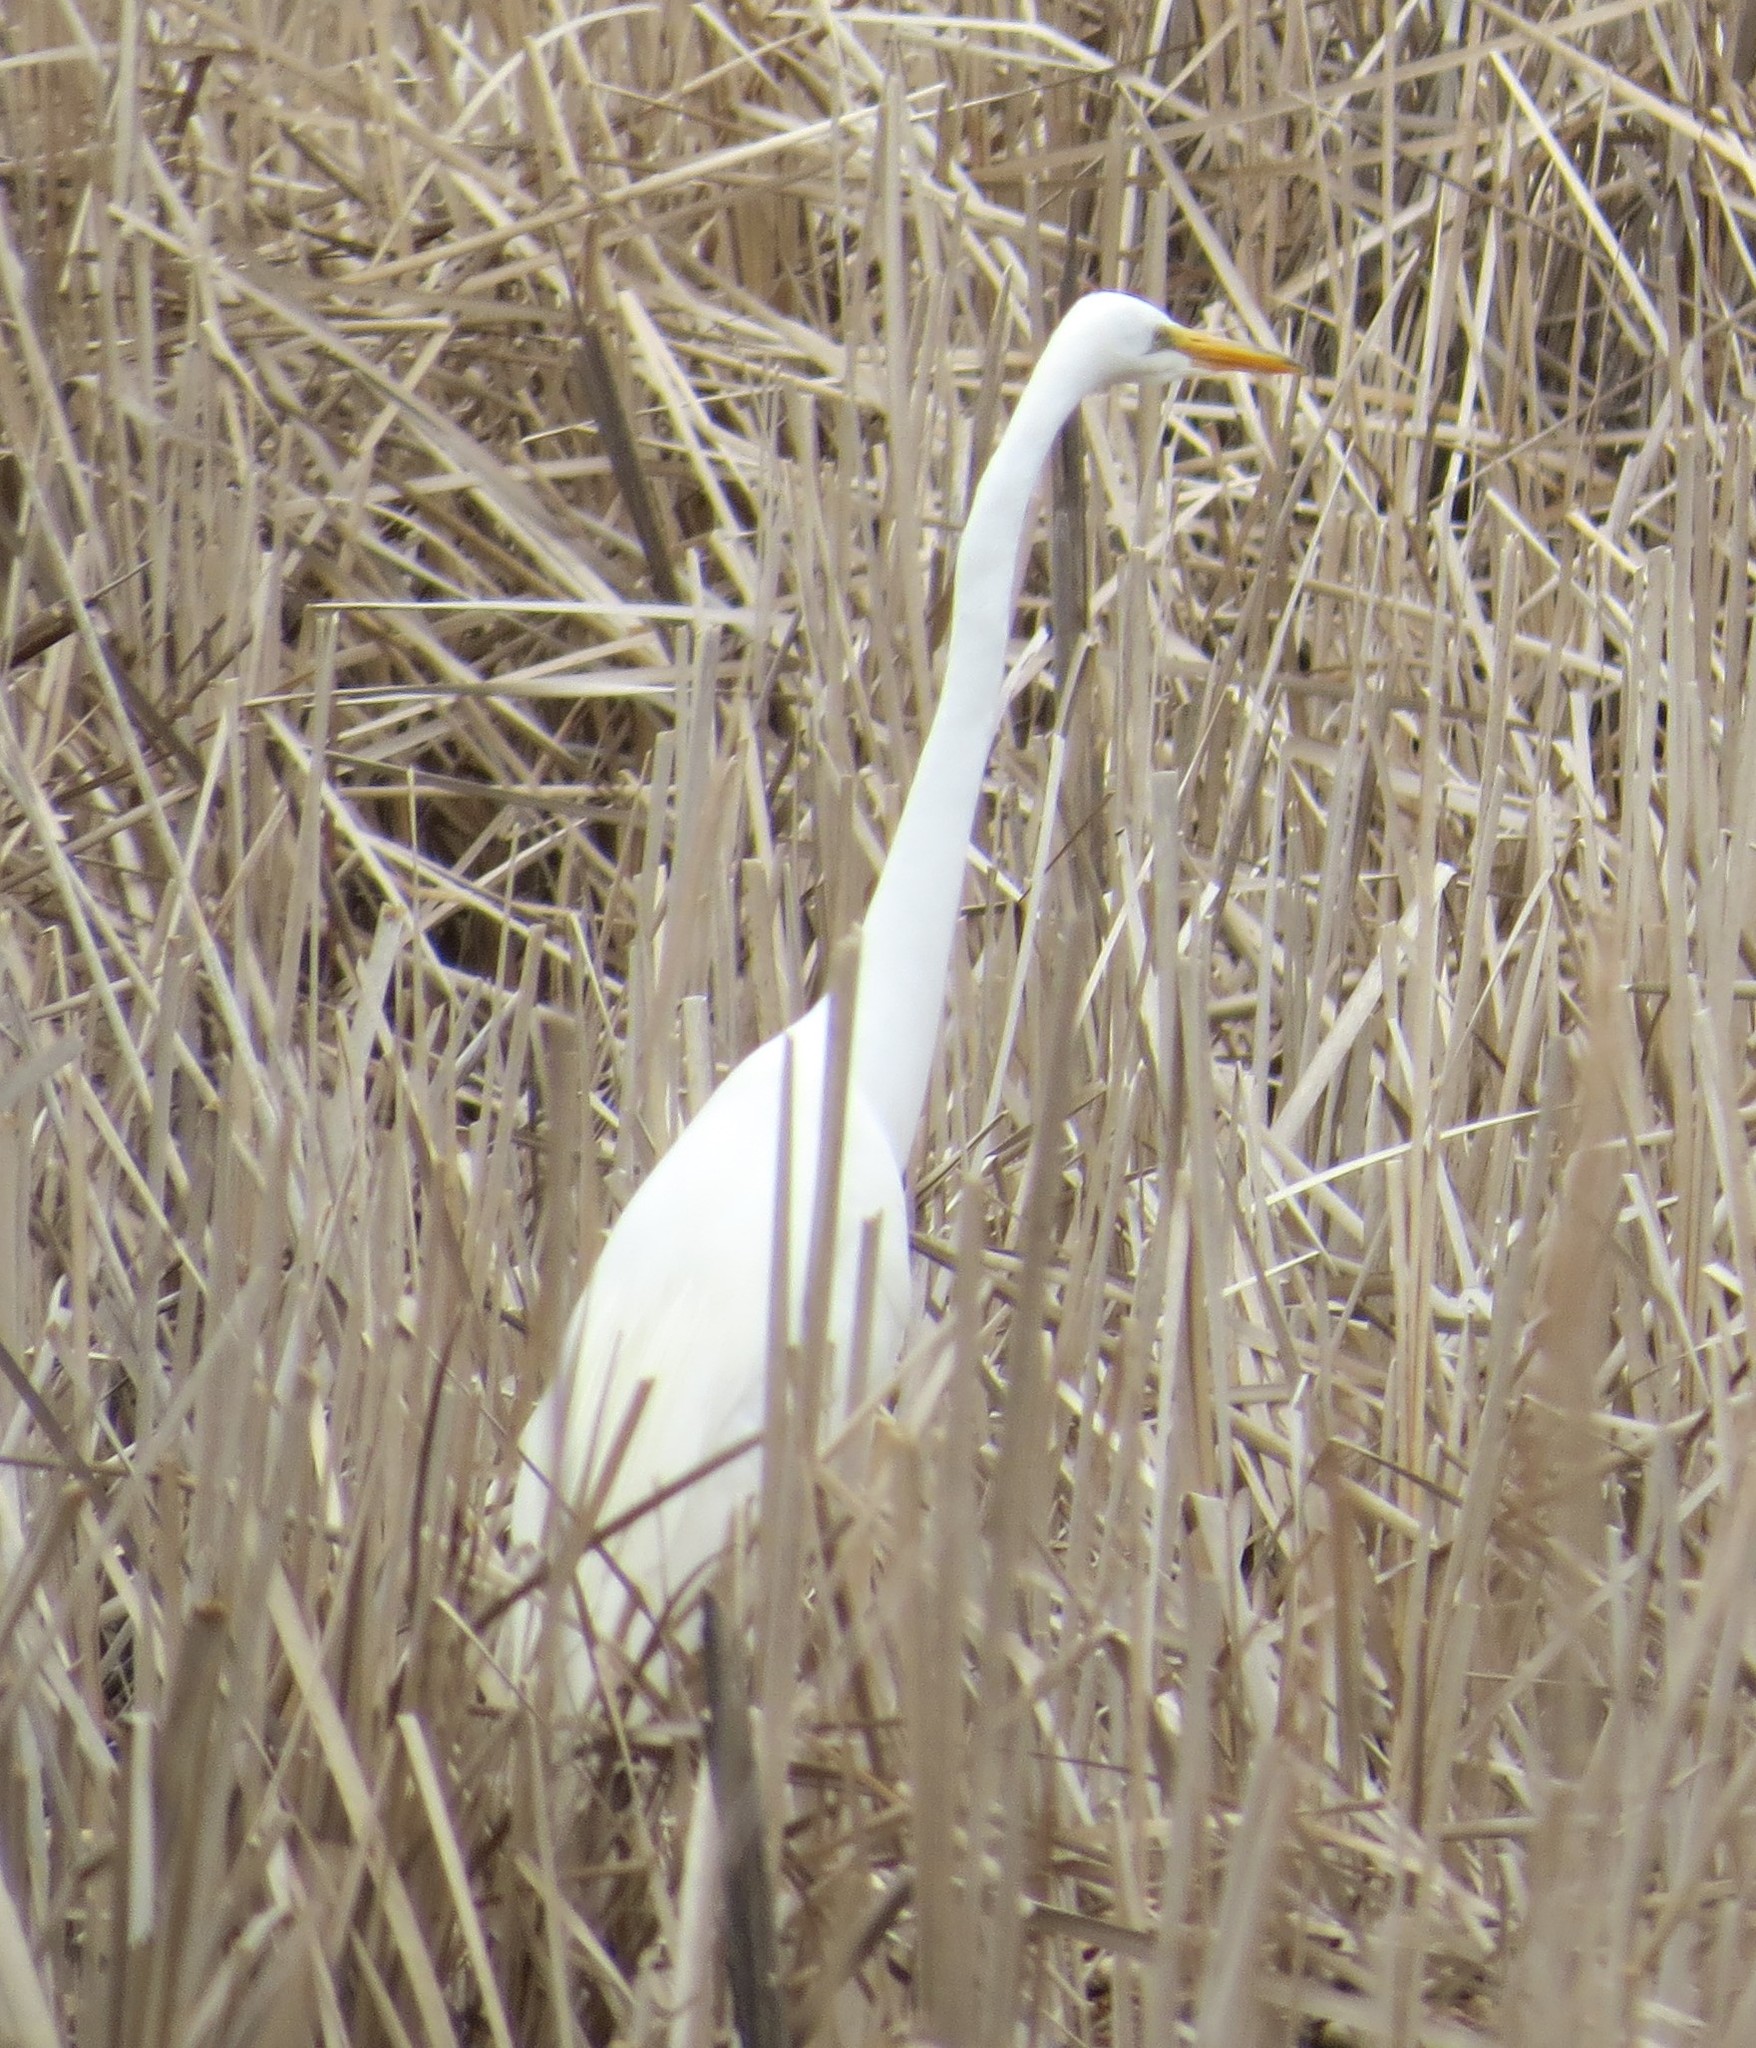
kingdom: Animalia
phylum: Chordata
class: Aves
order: Pelecaniformes
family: Ardeidae
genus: Ardea
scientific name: Ardea alba
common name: Great egret
